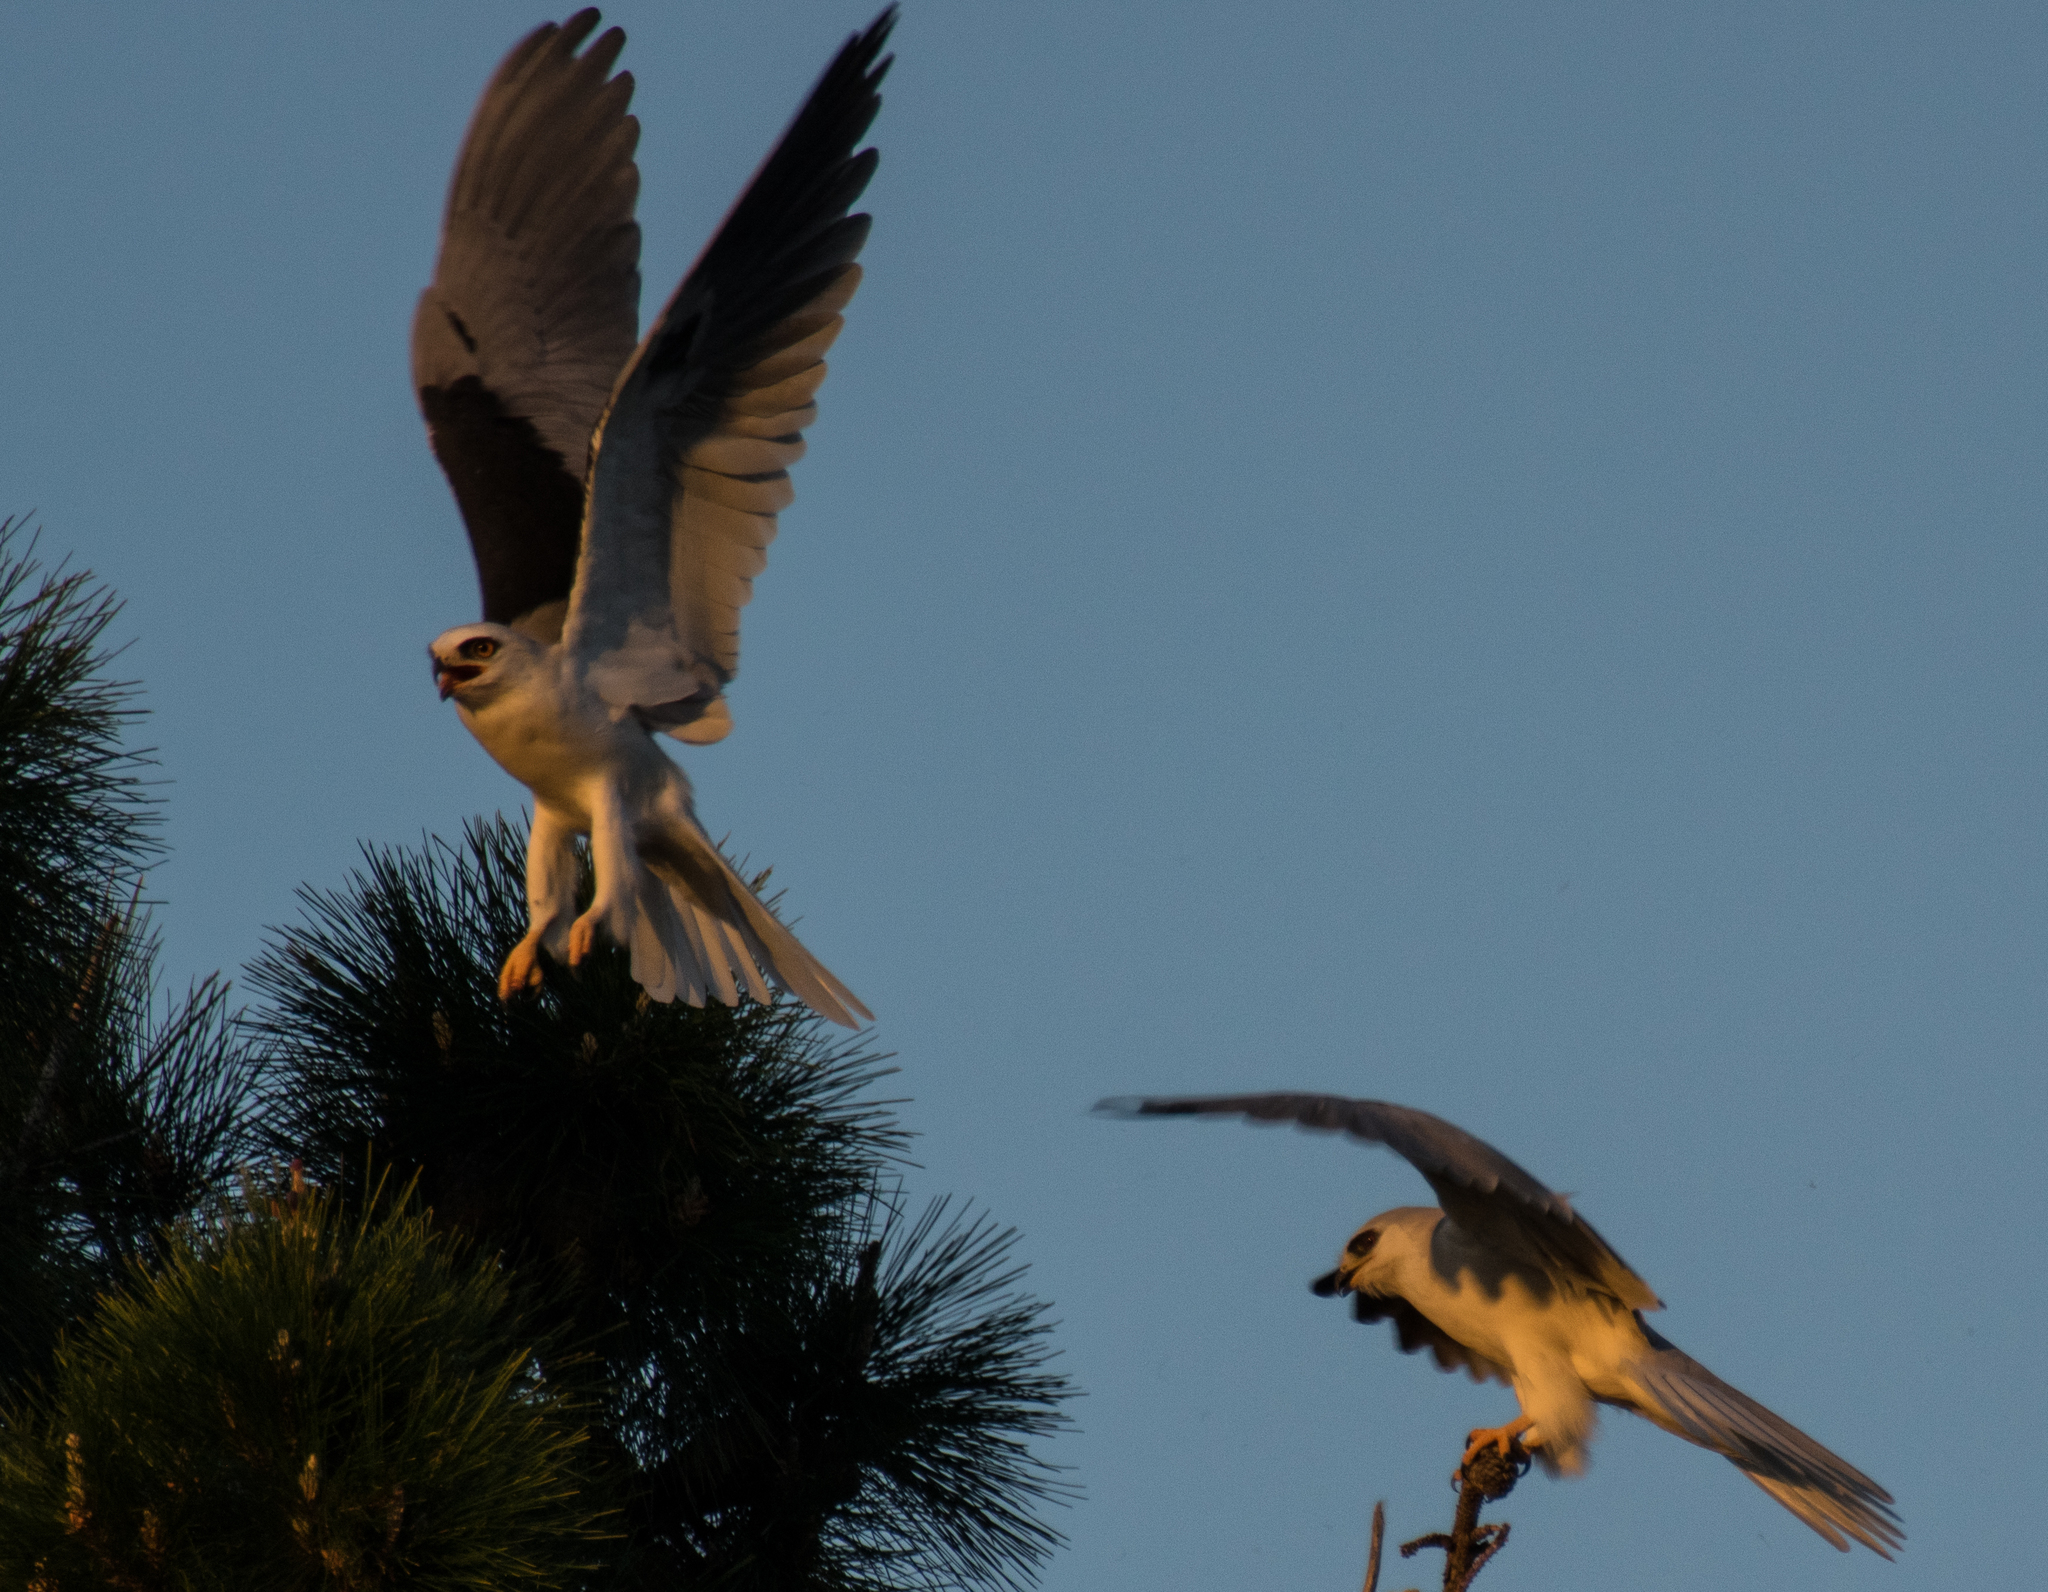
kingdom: Animalia
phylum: Chordata
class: Aves
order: Accipitriformes
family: Accipitridae
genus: Elanus
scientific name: Elanus leucurus
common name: White-tailed kite
